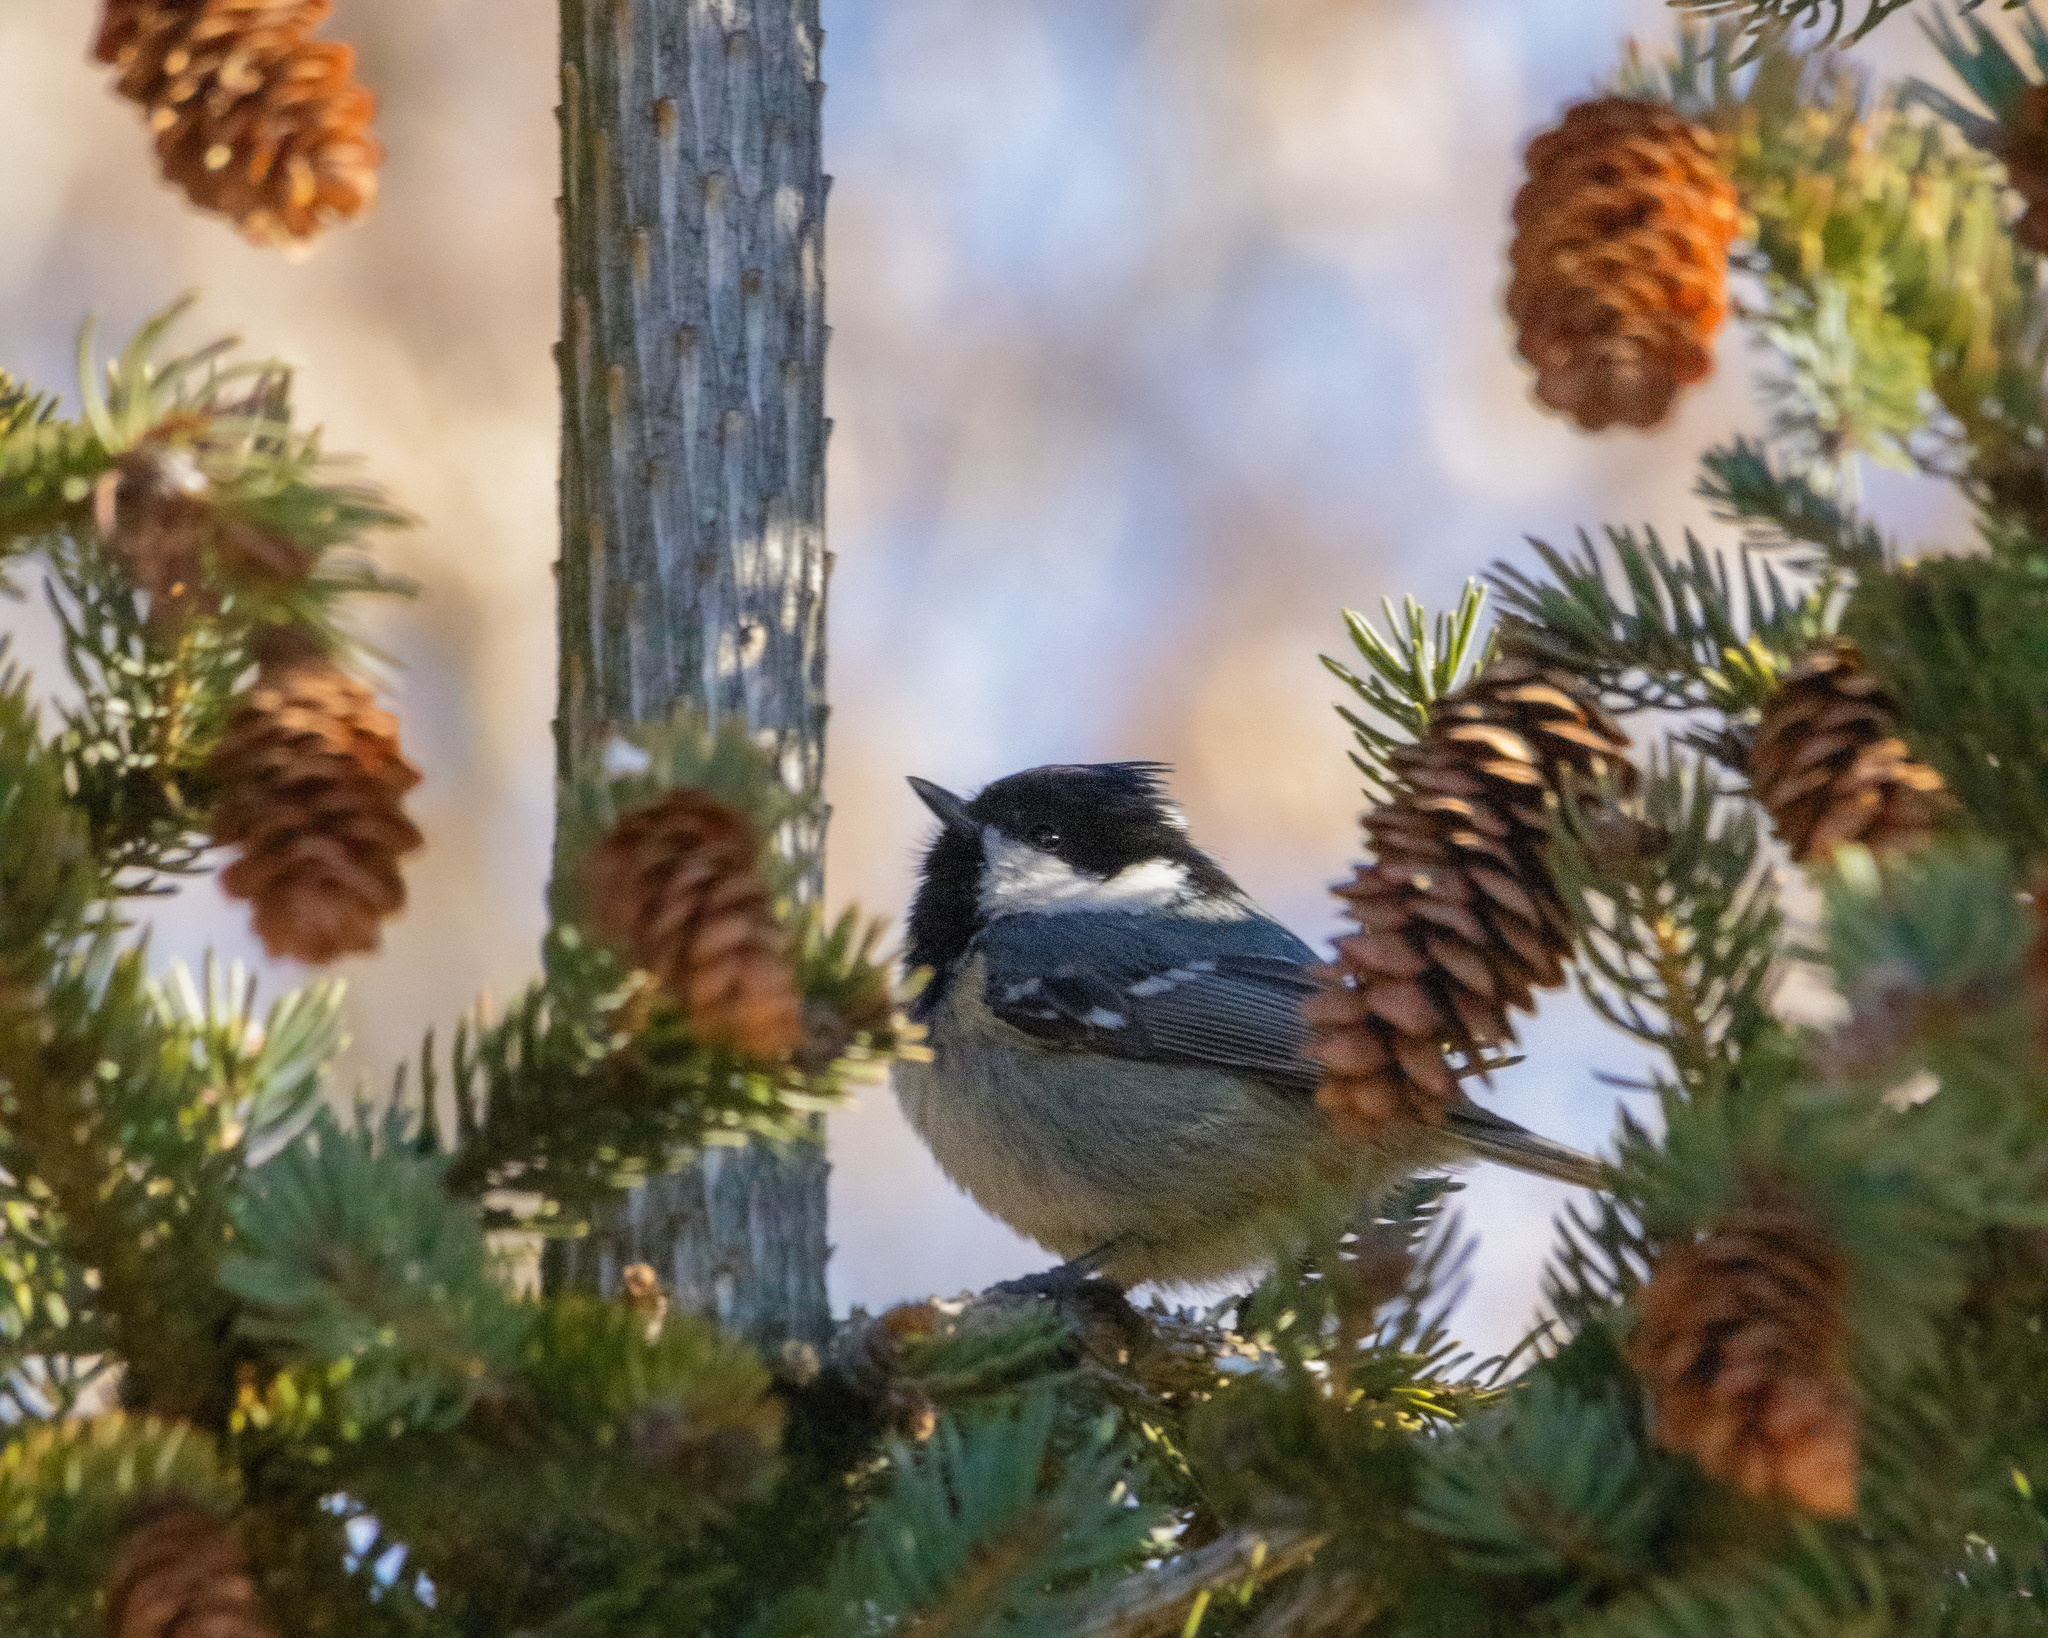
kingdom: Animalia
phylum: Chordata
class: Aves
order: Passeriformes
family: Paridae
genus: Periparus
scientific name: Periparus ater
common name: Coal tit
